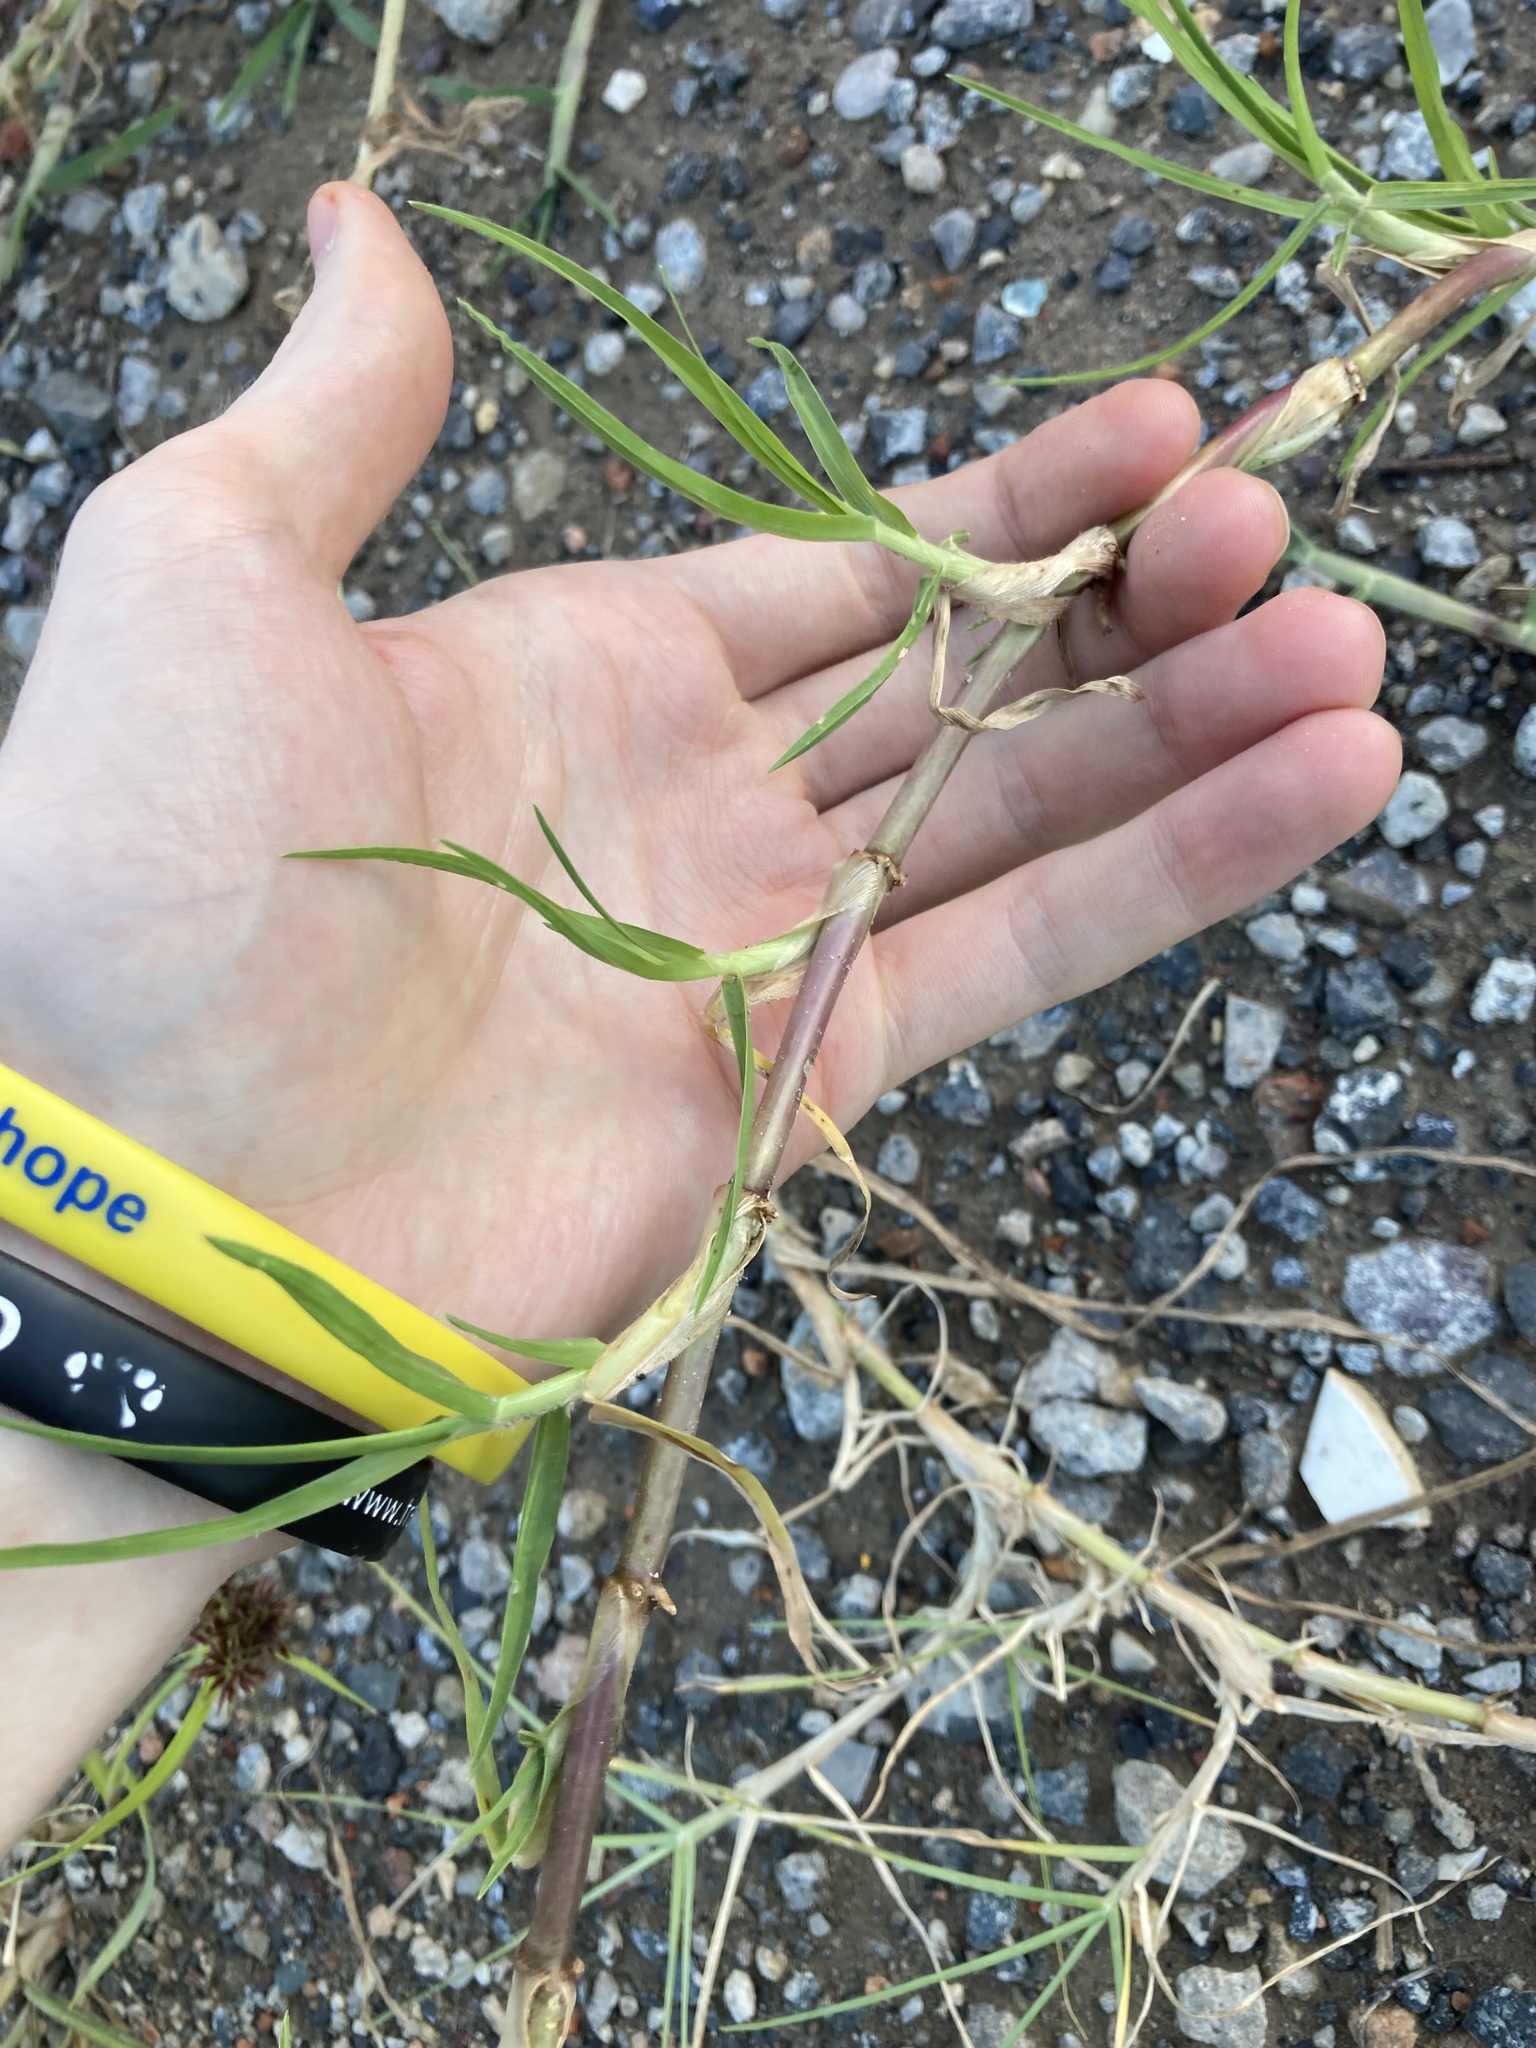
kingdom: Plantae
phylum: Tracheophyta
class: Liliopsida
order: Poales
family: Poaceae
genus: Cenchrus
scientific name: Cenchrus clandestinus
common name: Kikuyugrass
